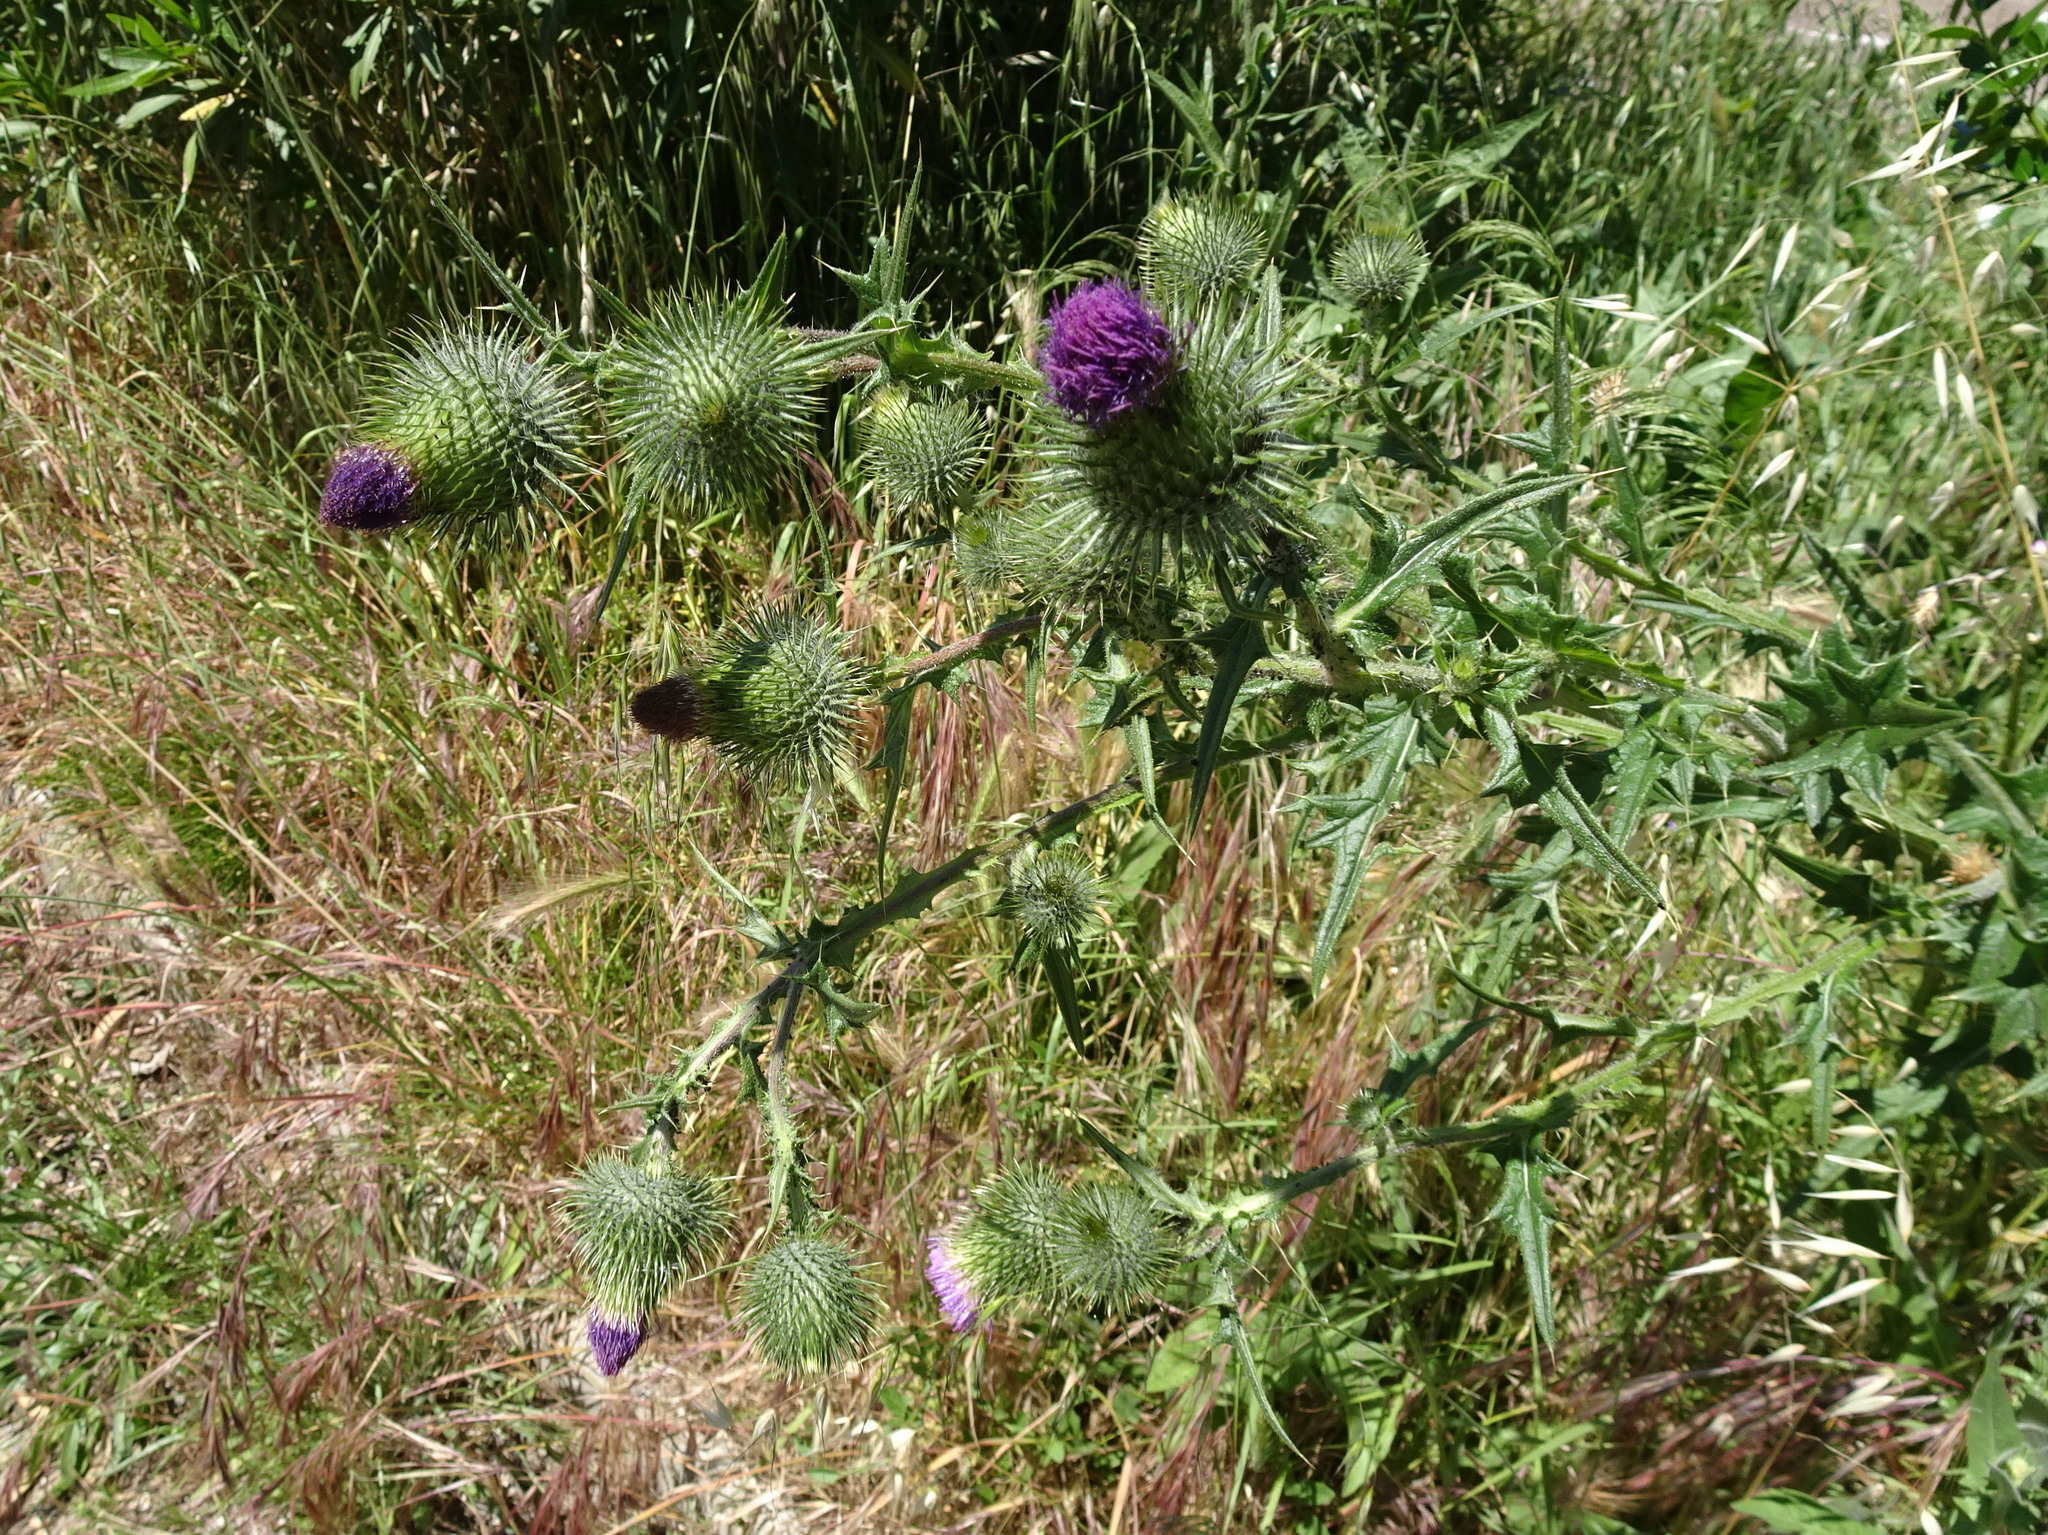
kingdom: Plantae
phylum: Tracheophyta
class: Magnoliopsida
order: Asterales
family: Asteraceae
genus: Cirsium
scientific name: Cirsium vulgare
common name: Bull thistle
